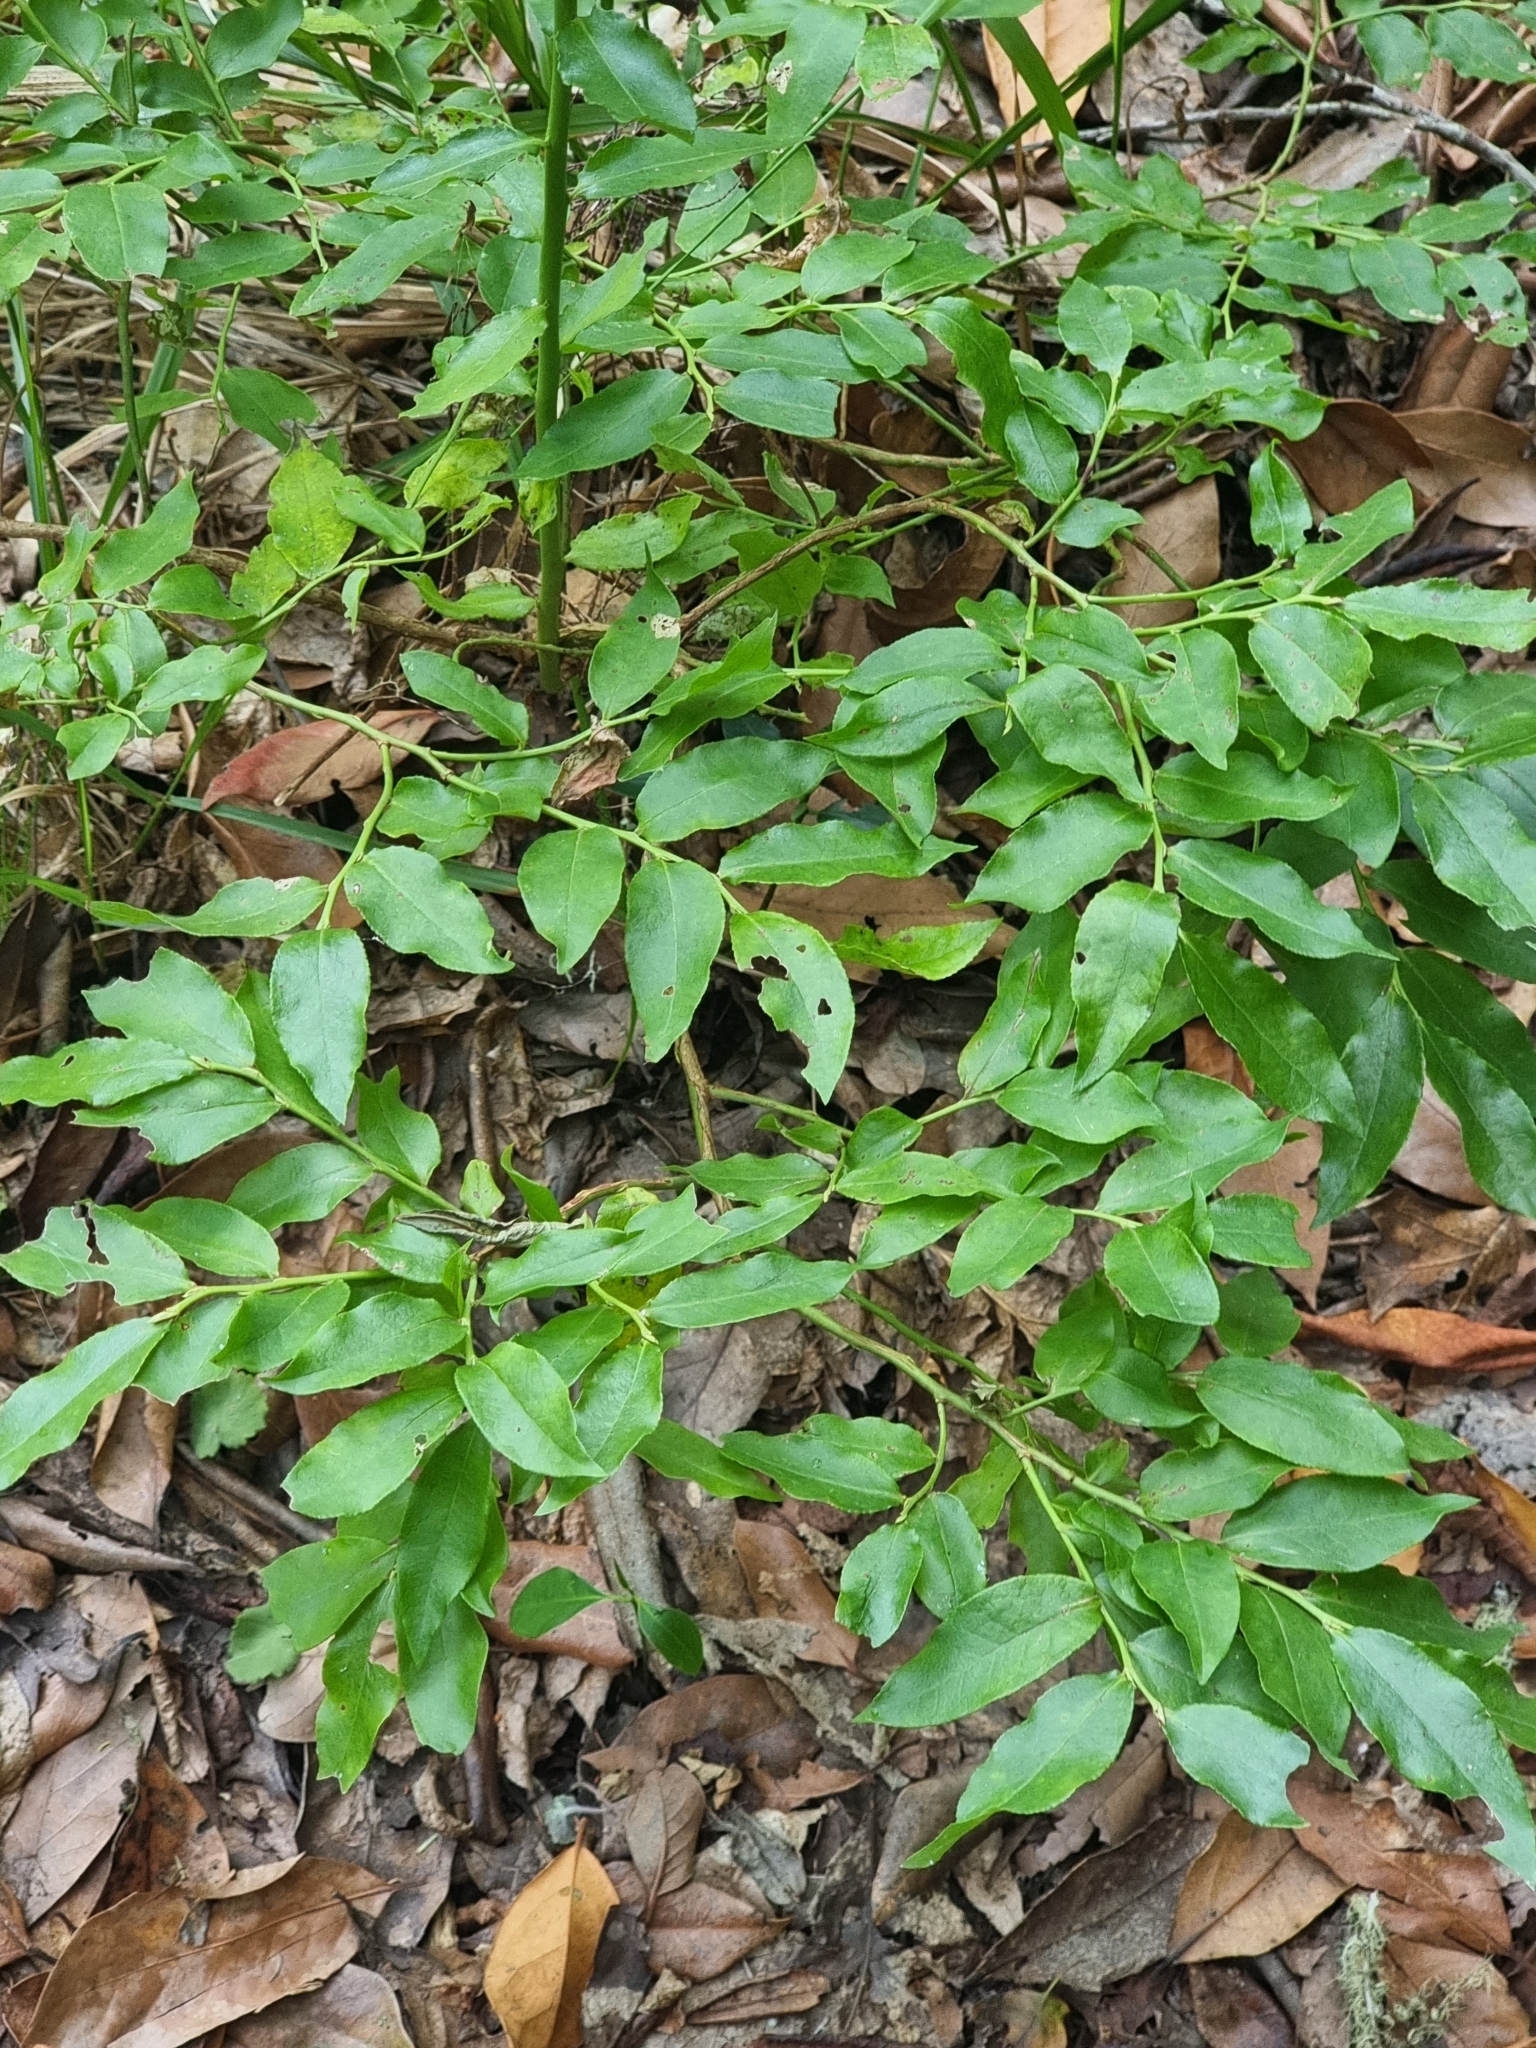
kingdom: Plantae
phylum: Tracheophyta
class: Magnoliopsida
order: Ericales
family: Ericaceae
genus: Vaccinium
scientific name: Vaccinium padifolium
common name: Madeiran blueberry
